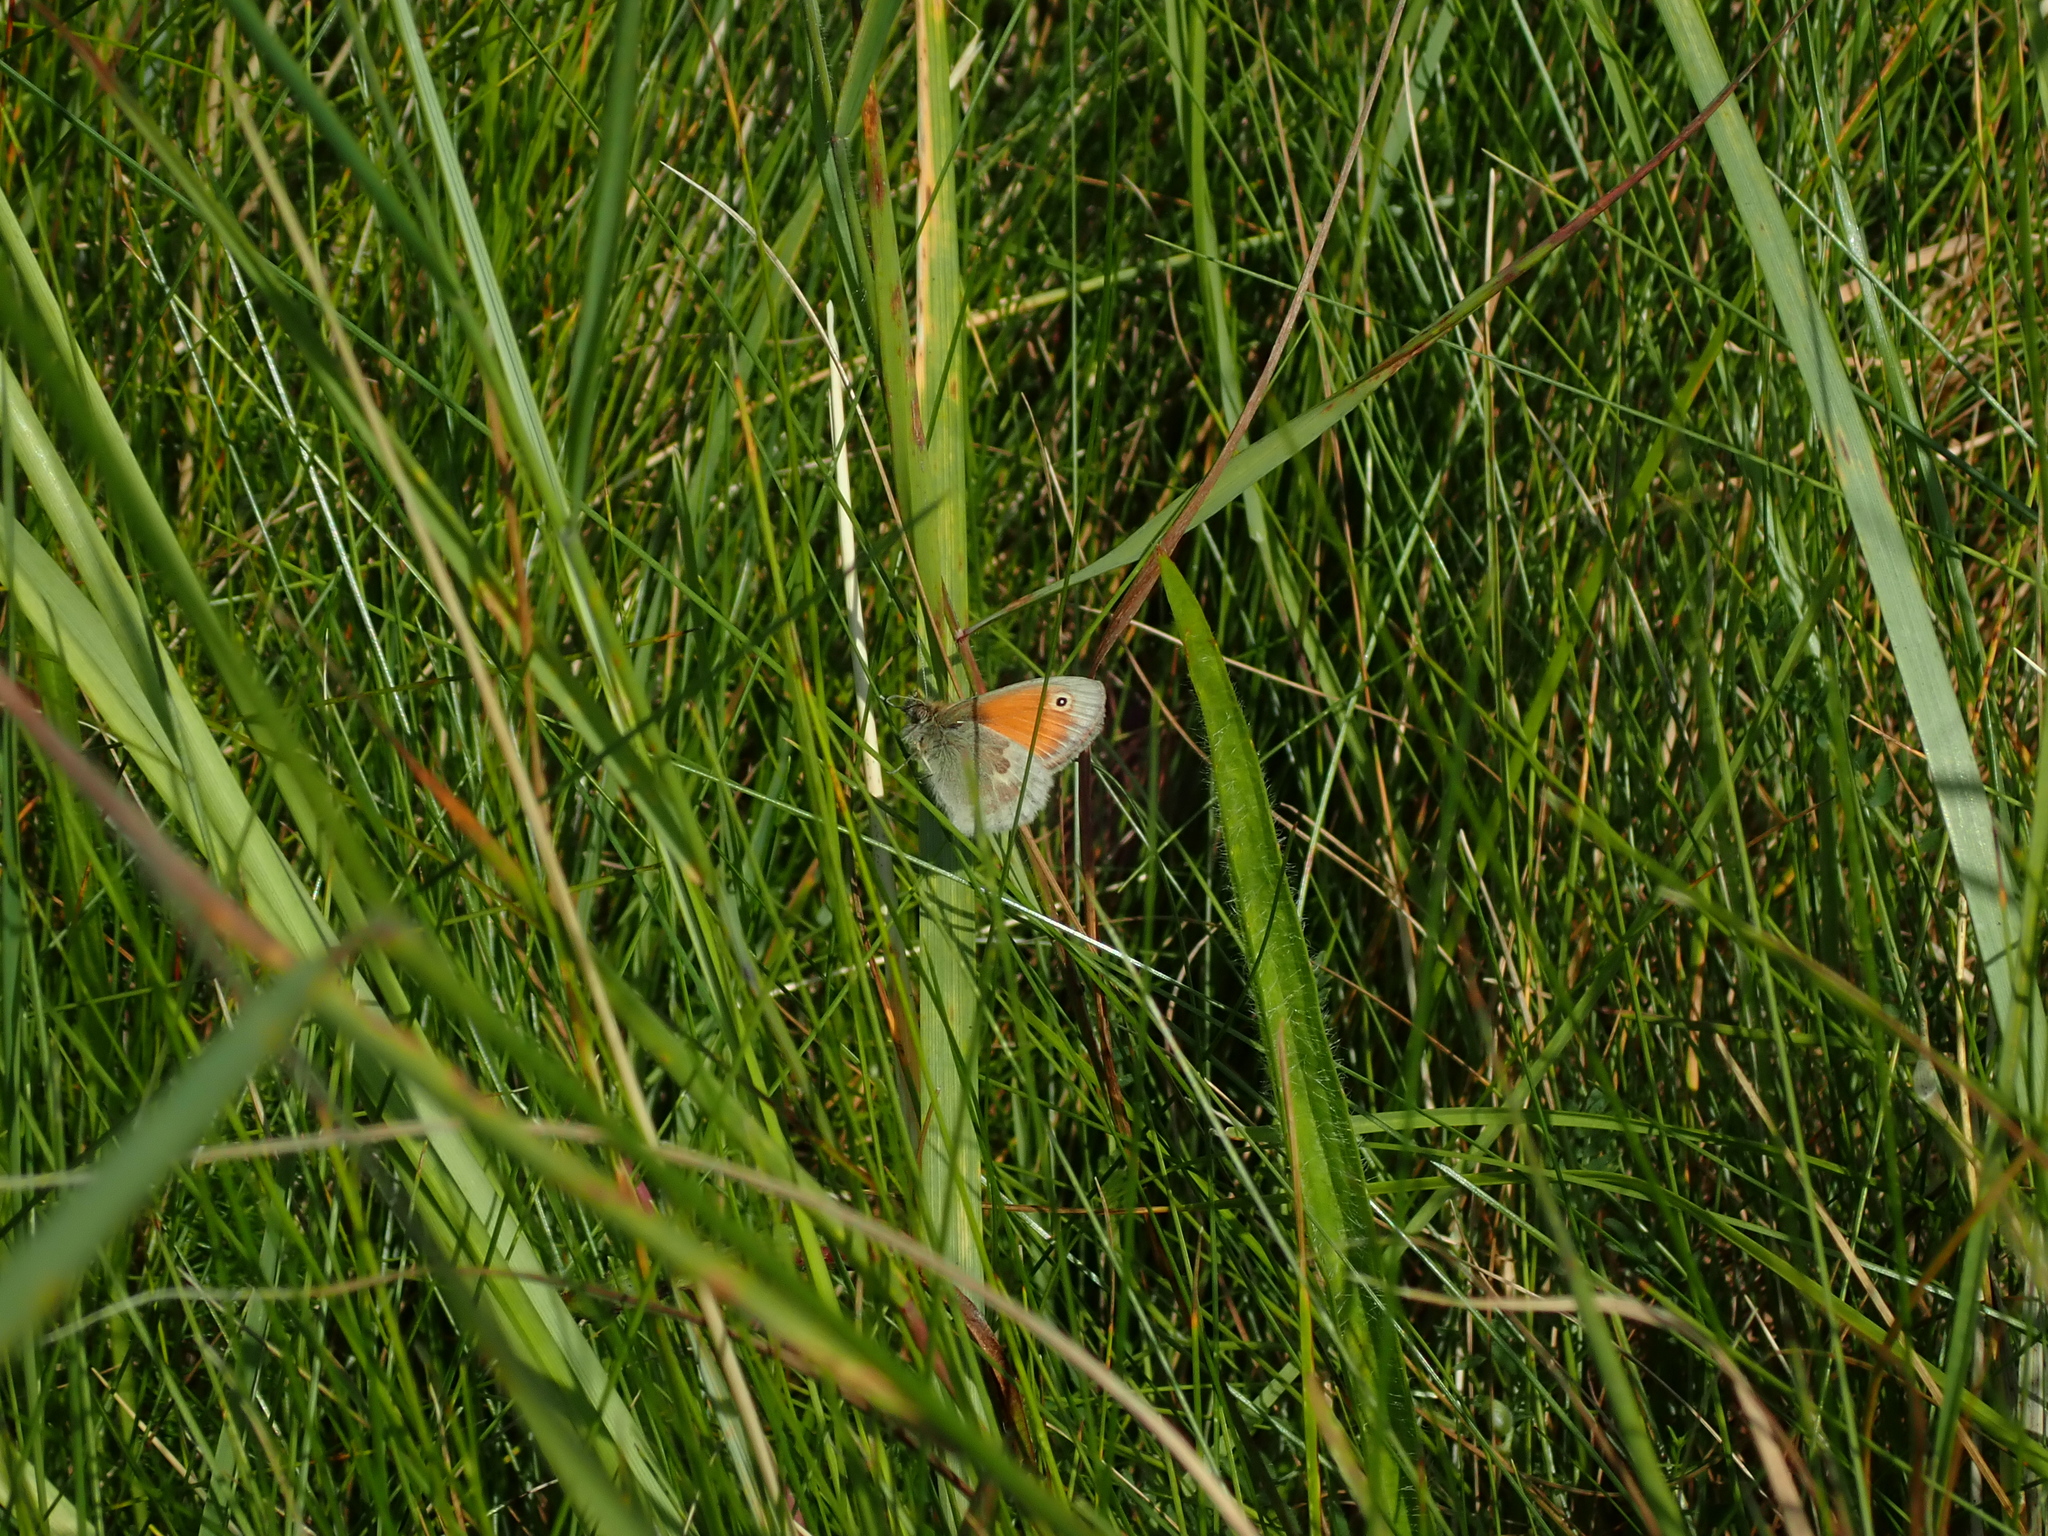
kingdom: Animalia
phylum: Arthropoda
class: Insecta
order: Lepidoptera
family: Nymphalidae
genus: Coenonympha
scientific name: Coenonympha pamphilus
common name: Small heath
